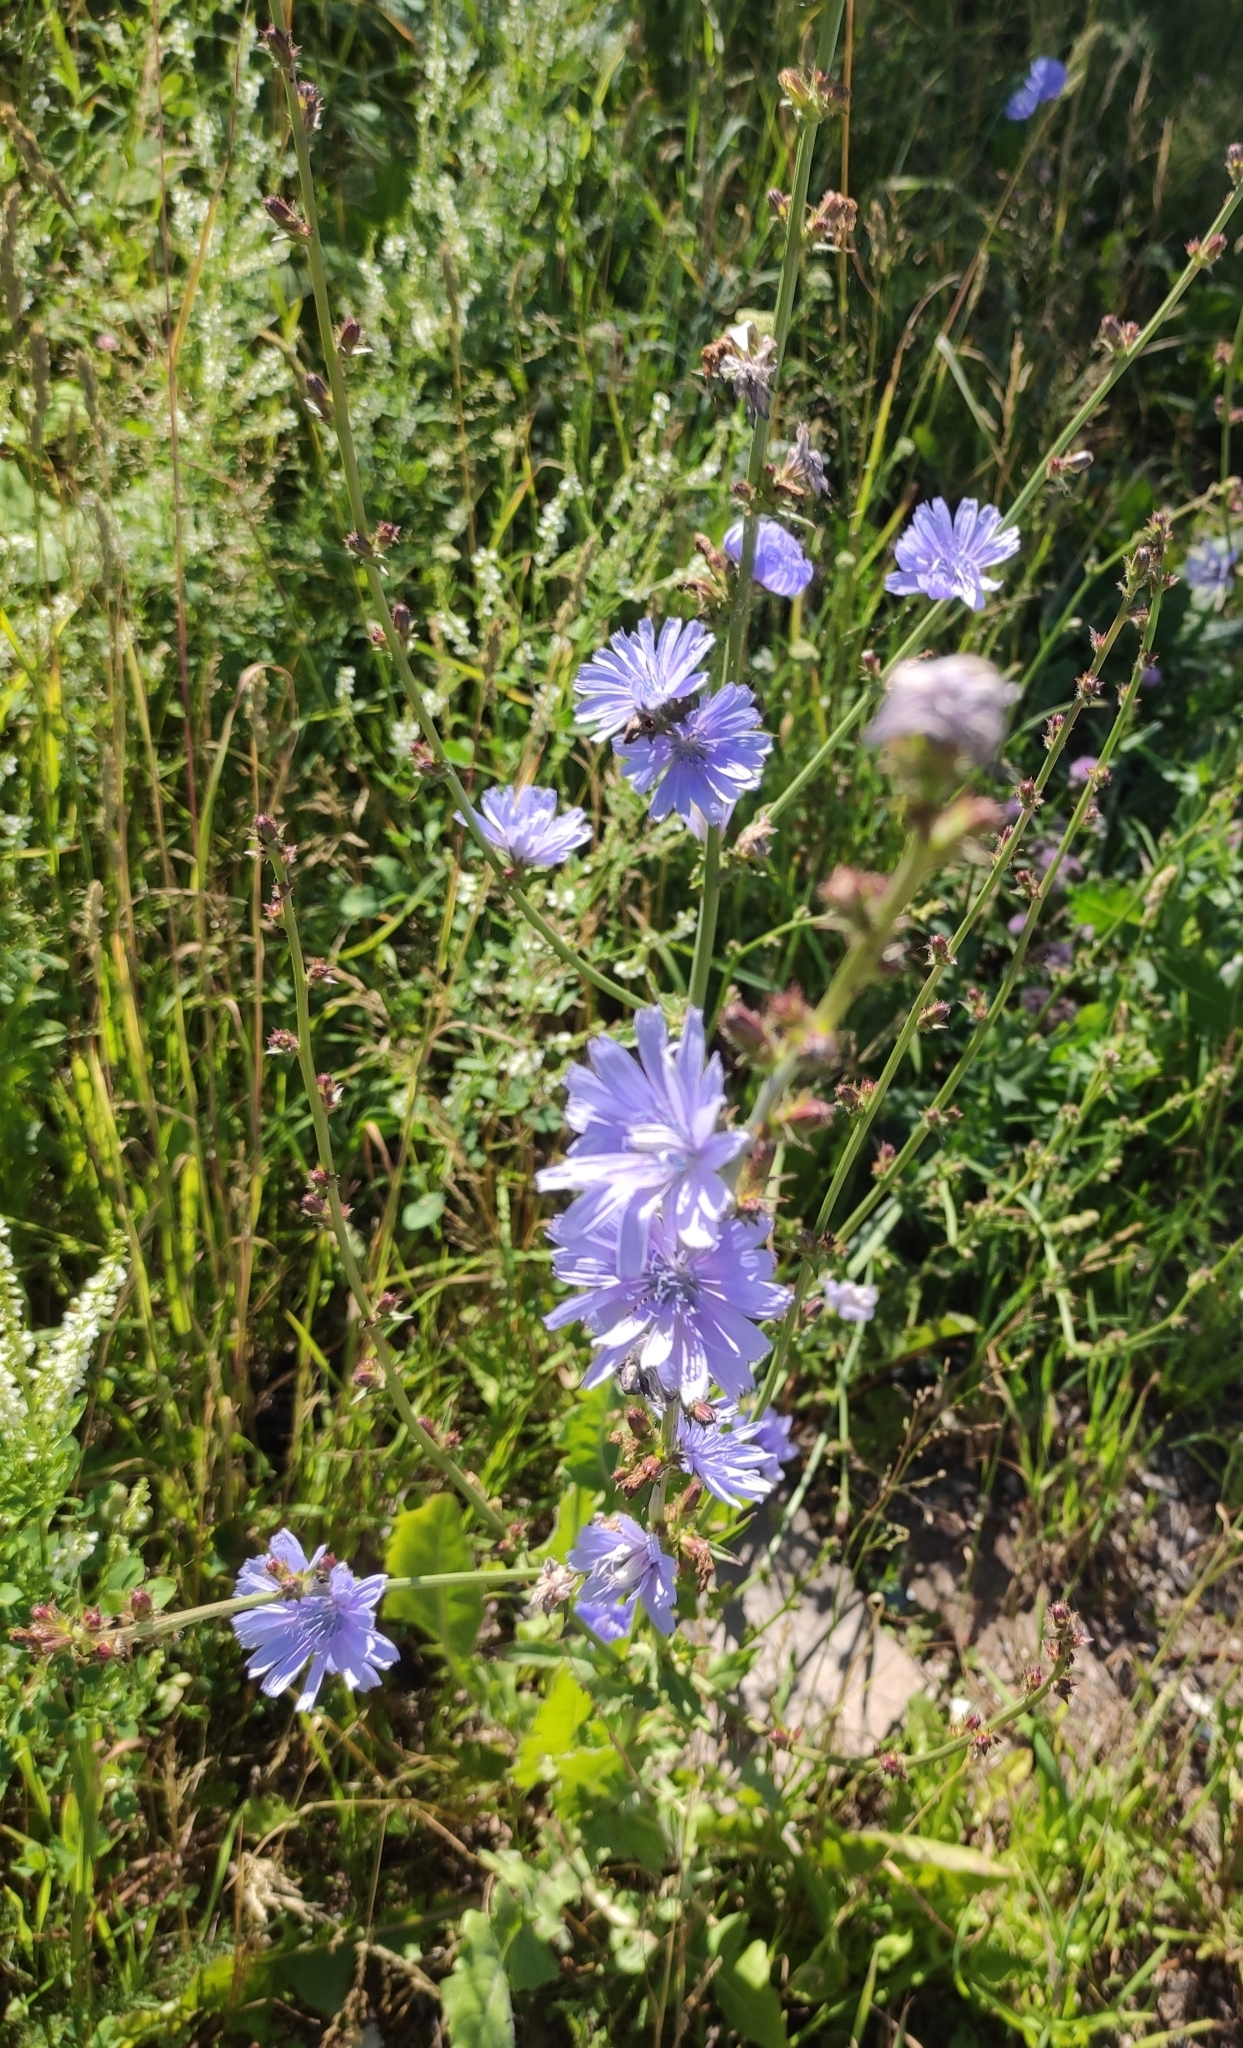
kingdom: Plantae
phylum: Tracheophyta
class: Magnoliopsida
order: Asterales
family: Asteraceae
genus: Cichorium
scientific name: Cichorium intybus
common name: Chicory
